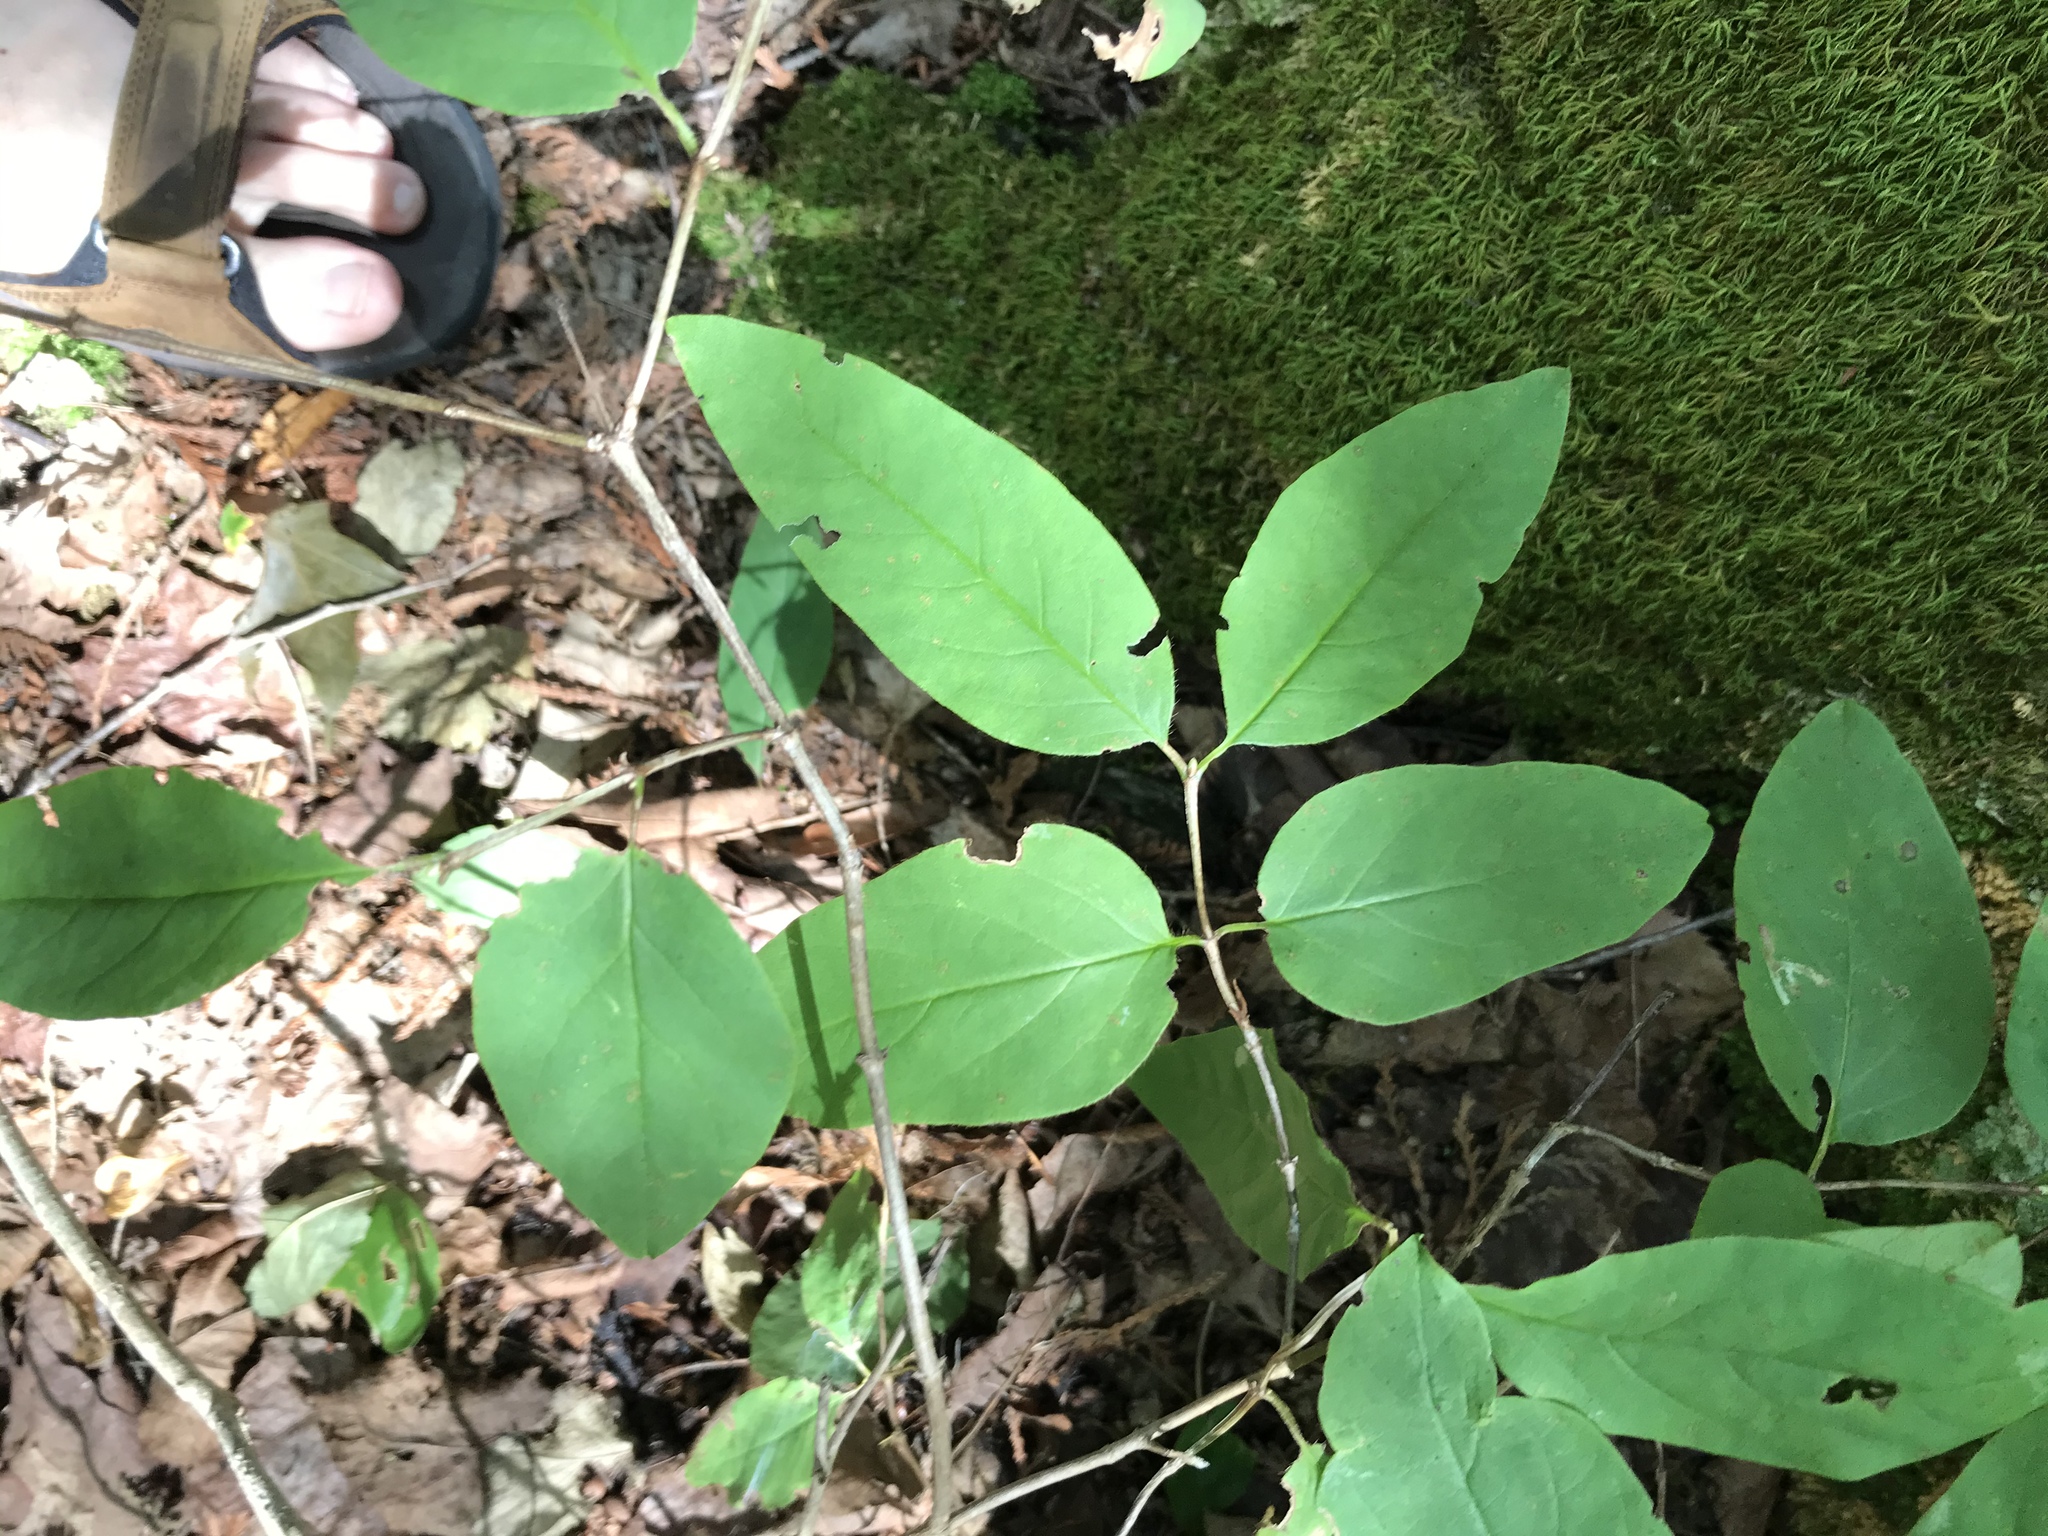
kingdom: Plantae
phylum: Tracheophyta
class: Magnoliopsida
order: Dipsacales
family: Caprifoliaceae
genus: Lonicera
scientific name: Lonicera canadensis
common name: American fly-honeysuckle
